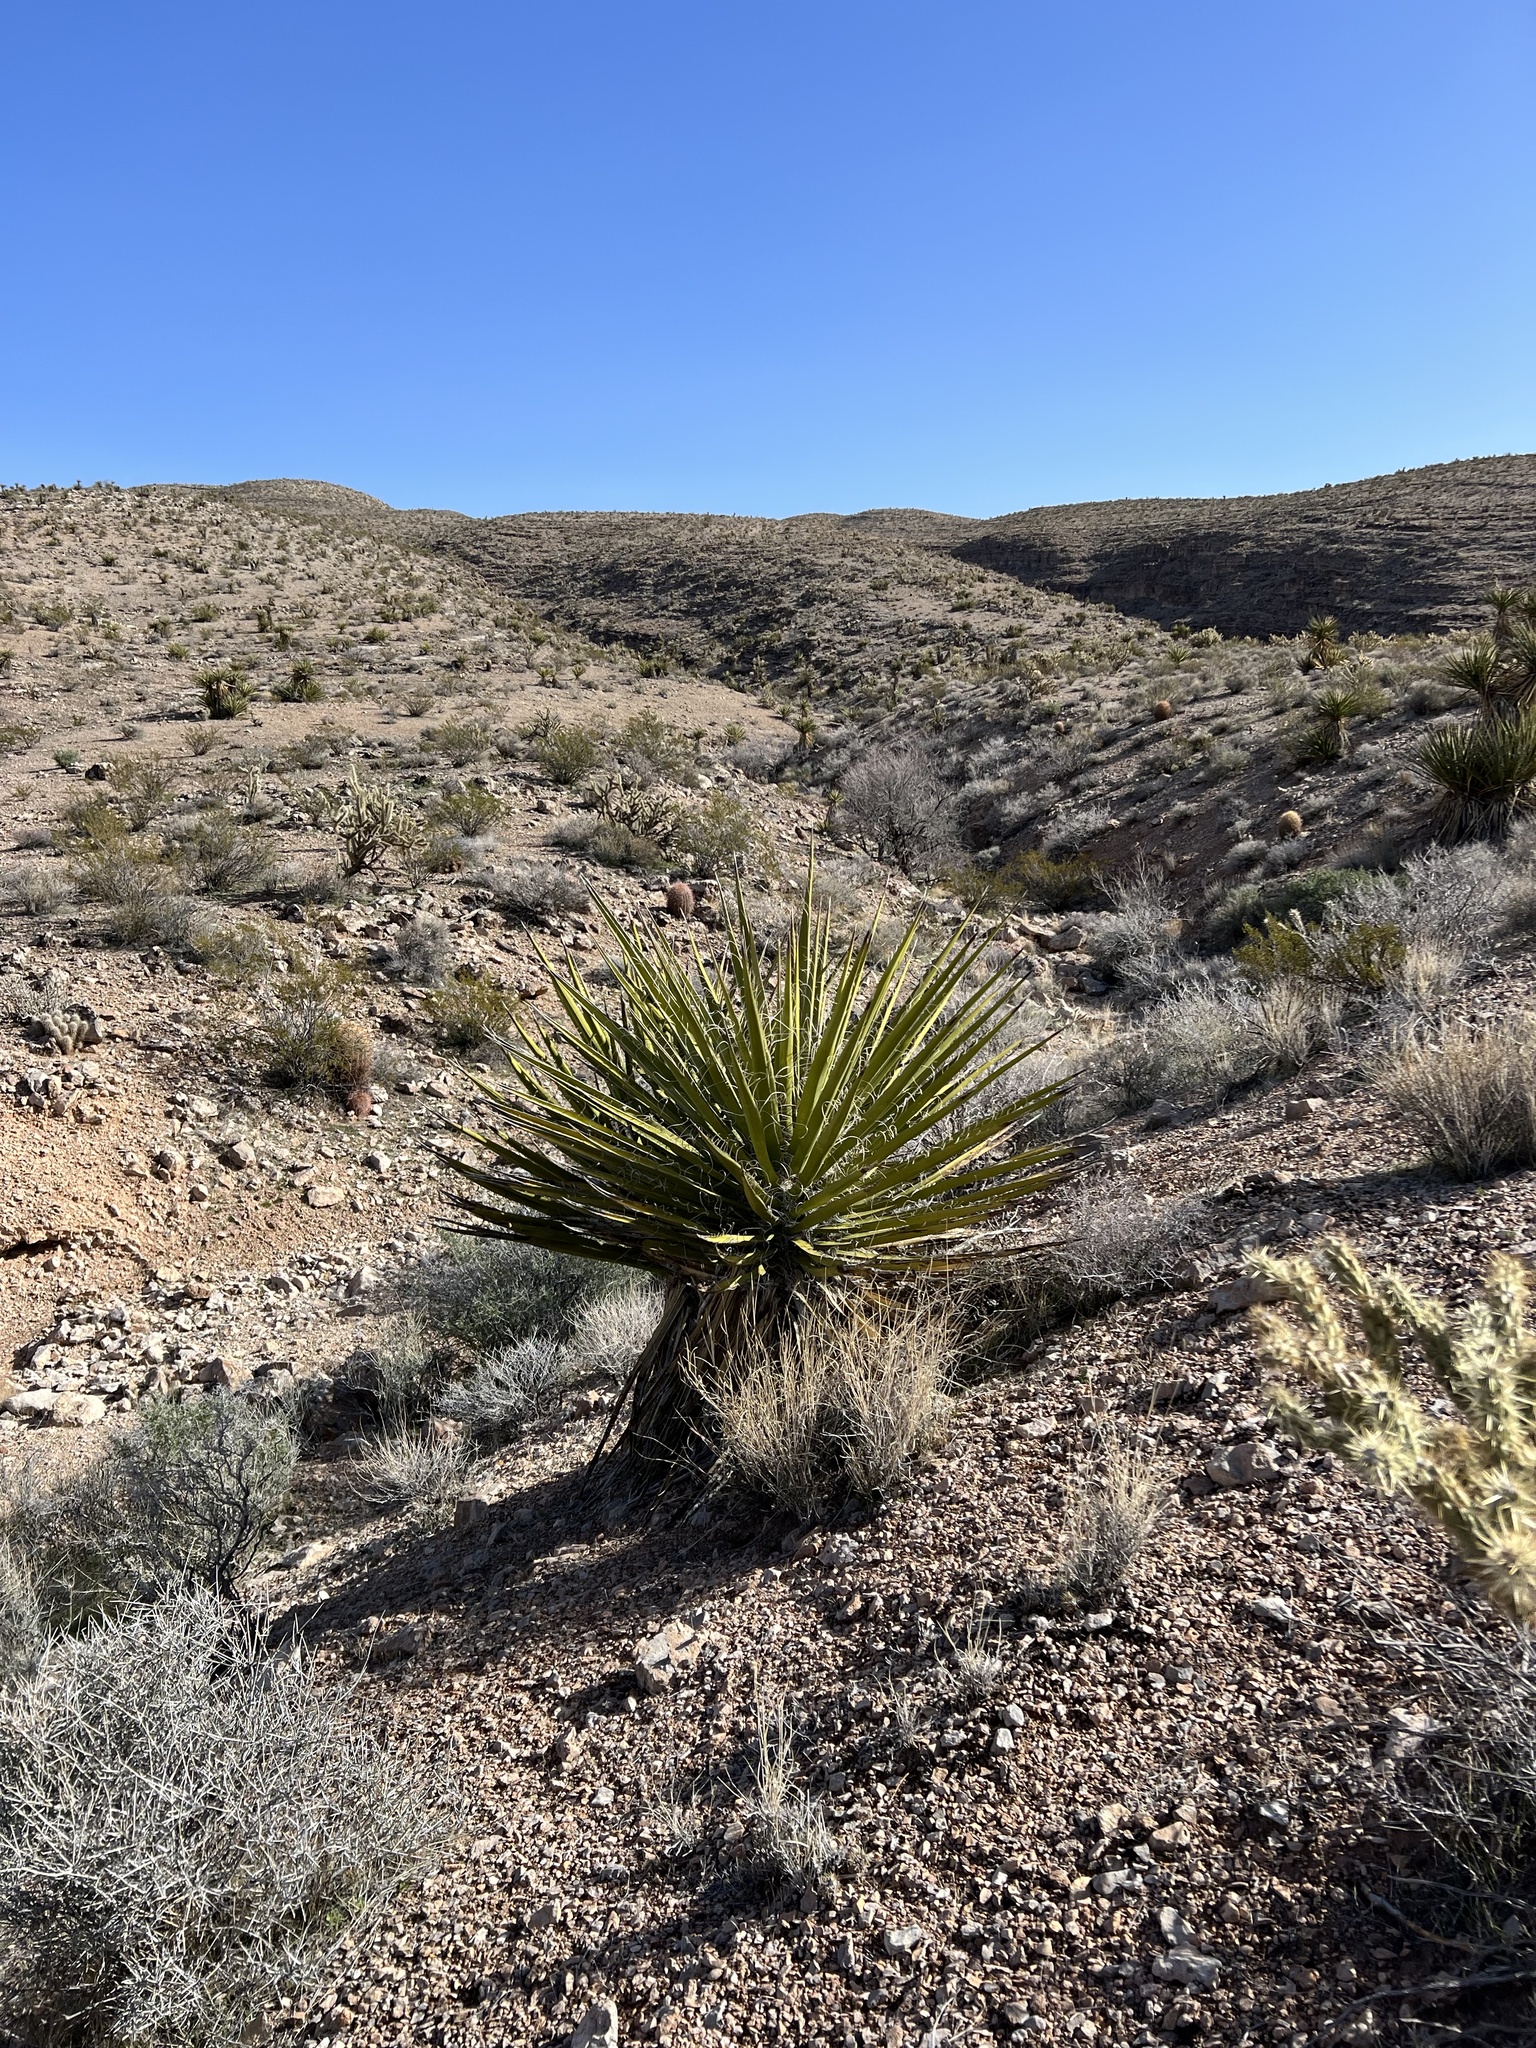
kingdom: Plantae
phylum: Tracheophyta
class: Liliopsida
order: Asparagales
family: Asparagaceae
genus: Yucca
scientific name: Yucca schidigera
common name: Mojave yucca
